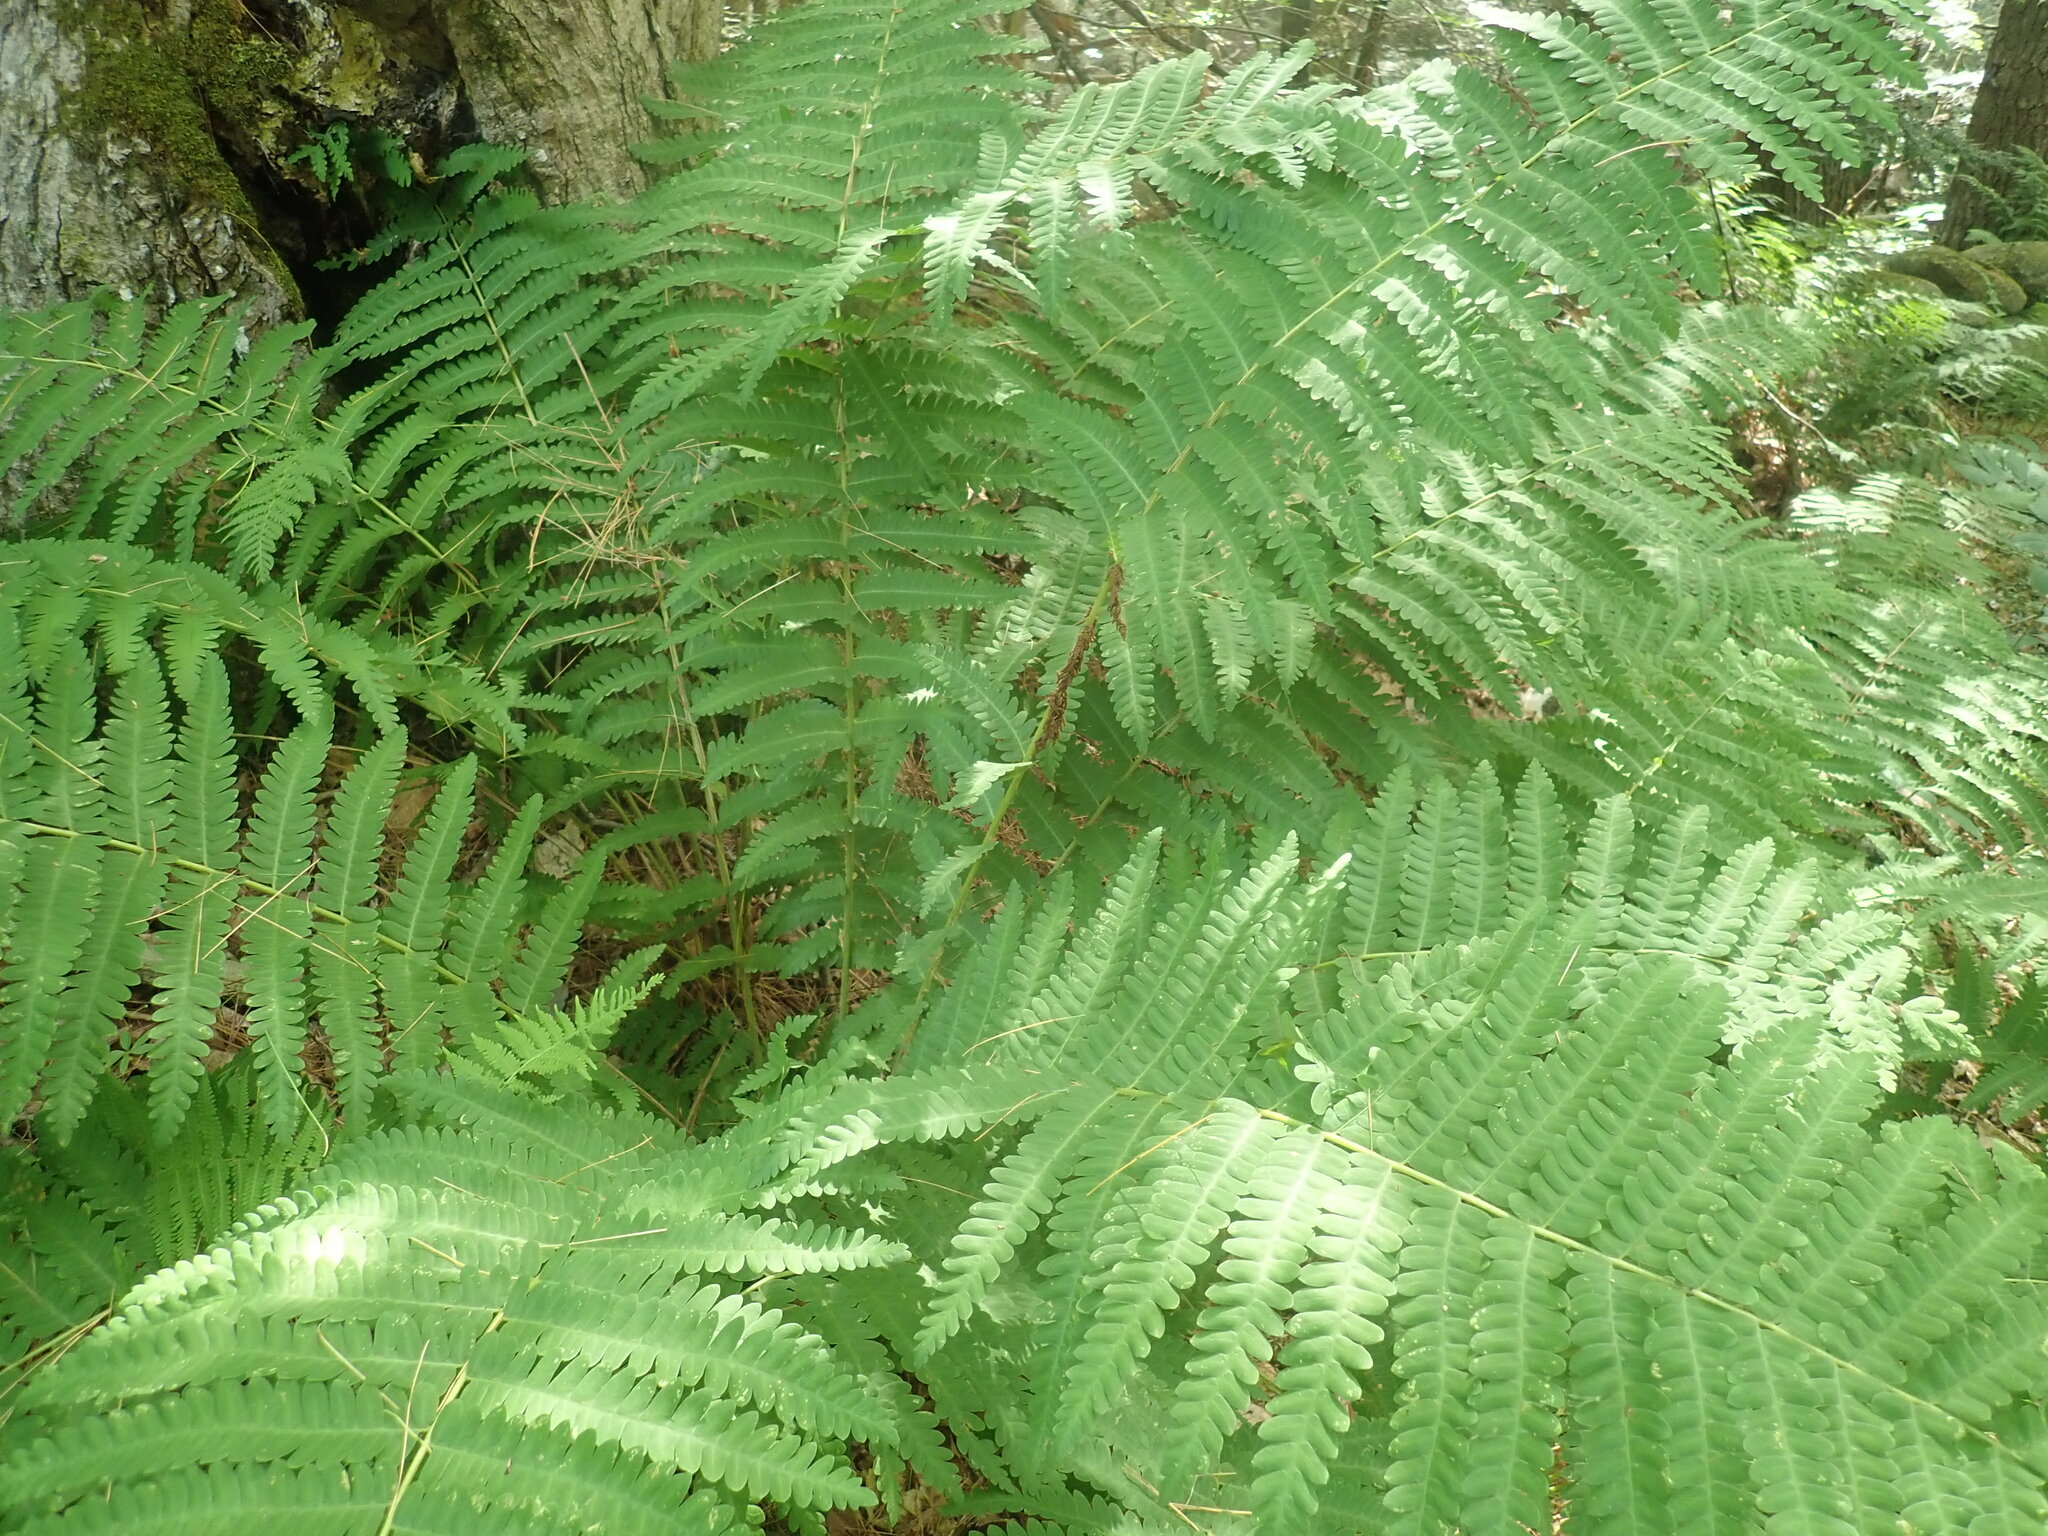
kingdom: Plantae
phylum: Tracheophyta
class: Polypodiopsida
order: Osmundales
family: Osmundaceae
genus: Claytosmunda
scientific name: Claytosmunda claytoniana
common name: Clayton's fern
